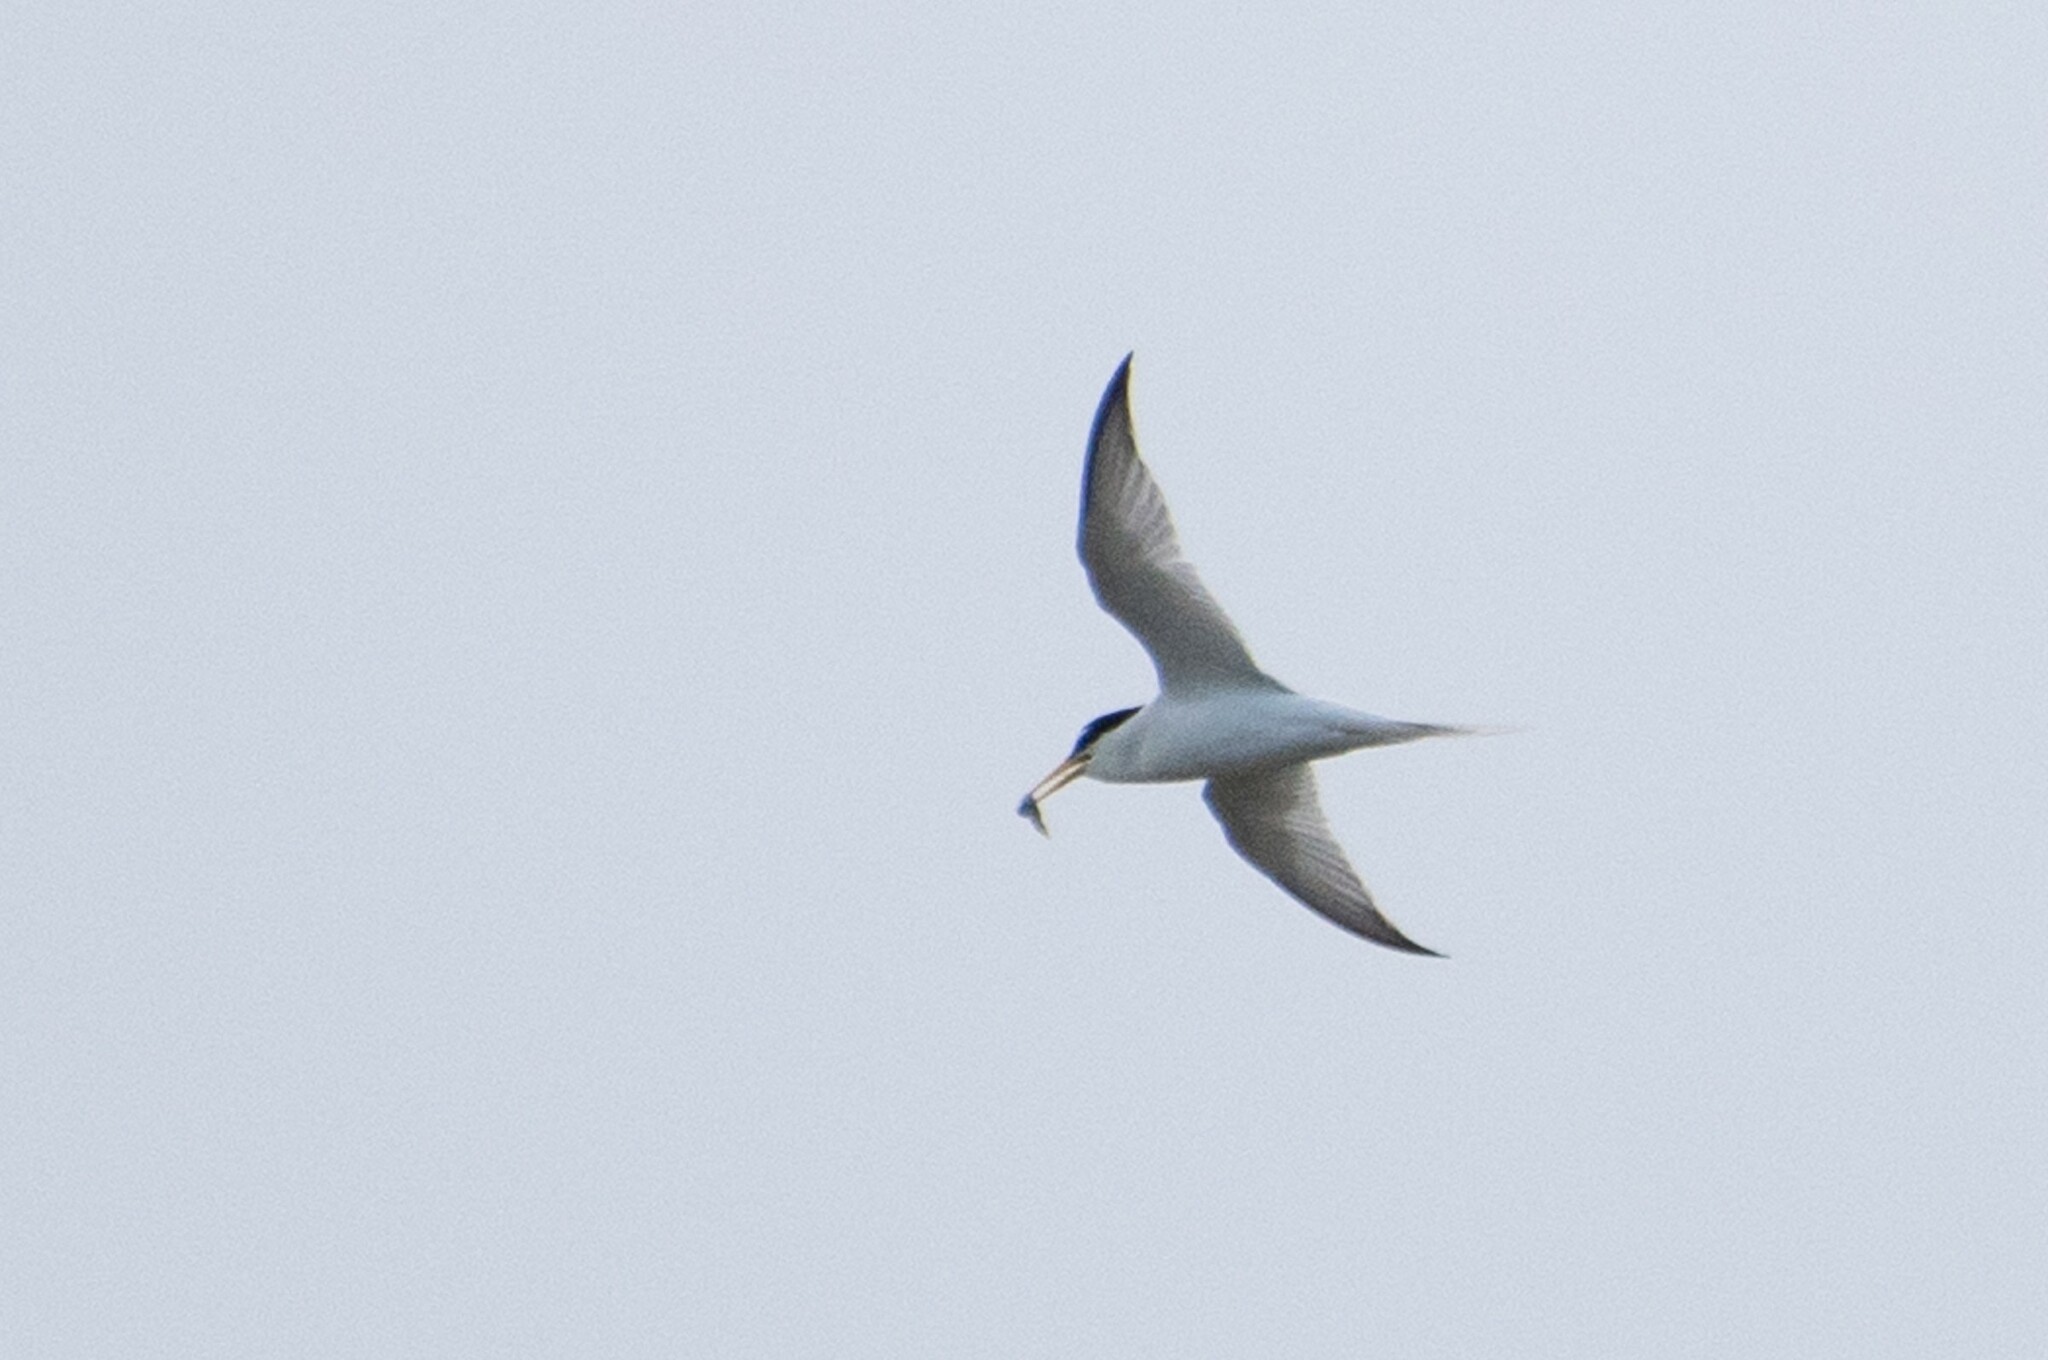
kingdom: Animalia
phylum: Chordata
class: Aves
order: Charadriiformes
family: Laridae
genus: Sternula
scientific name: Sternula albifrons
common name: Little tern
